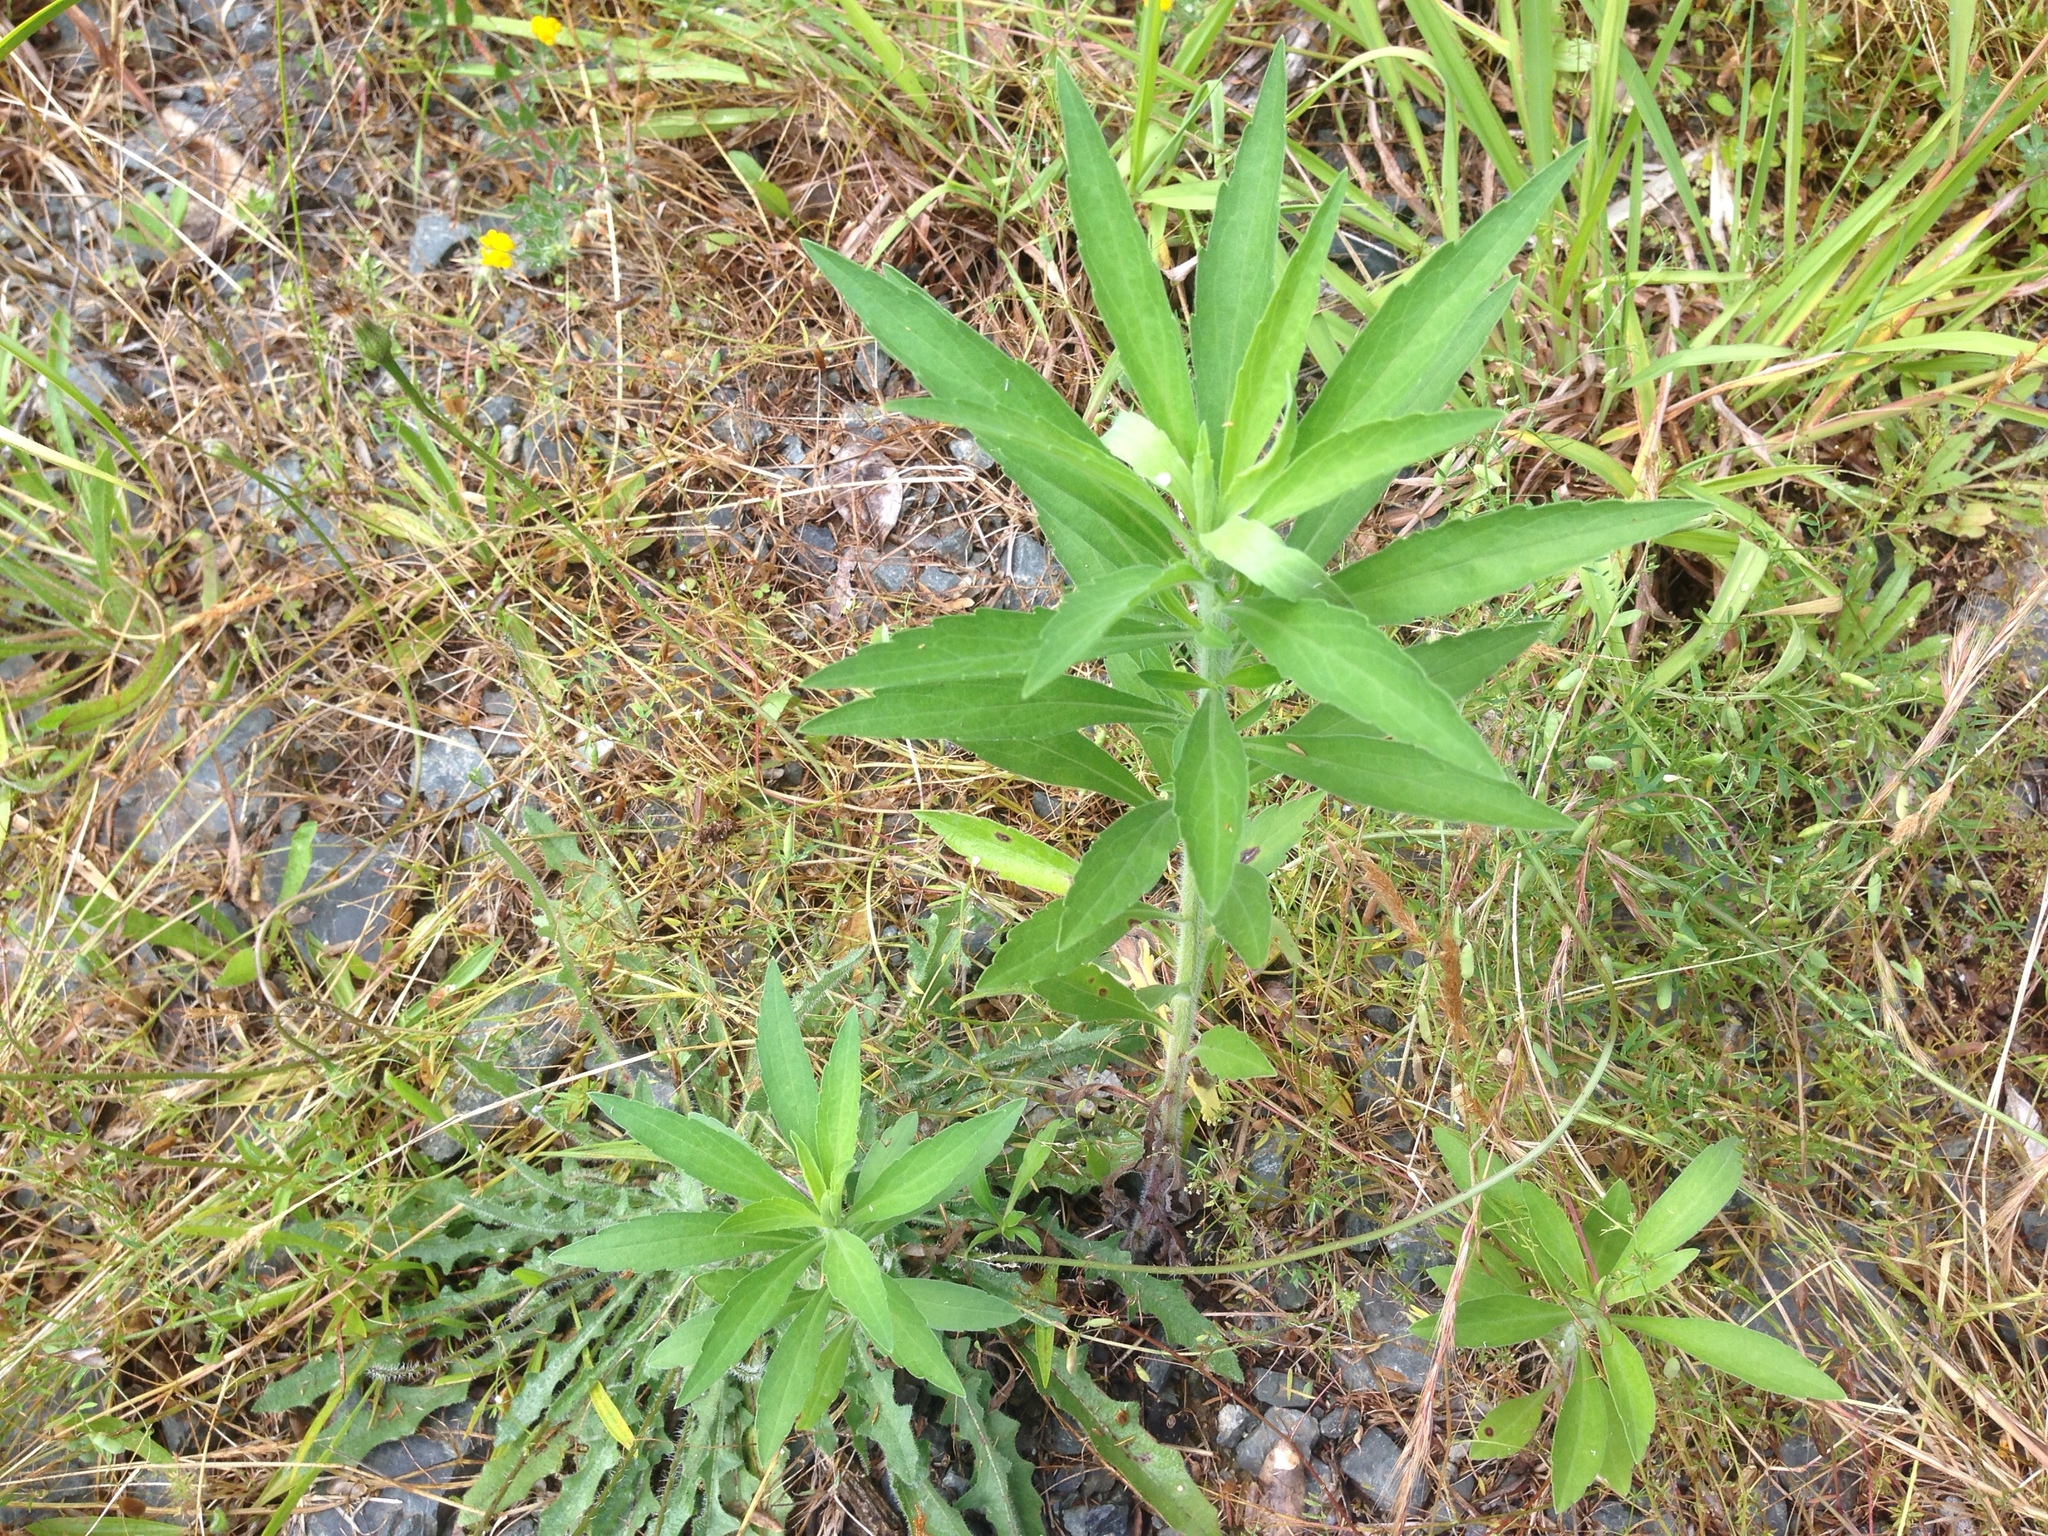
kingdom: Plantae
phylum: Tracheophyta
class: Magnoliopsida
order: Asterales
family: Asteraceae
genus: Erigeron
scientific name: Erigeron sumatrensis
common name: Daisy
